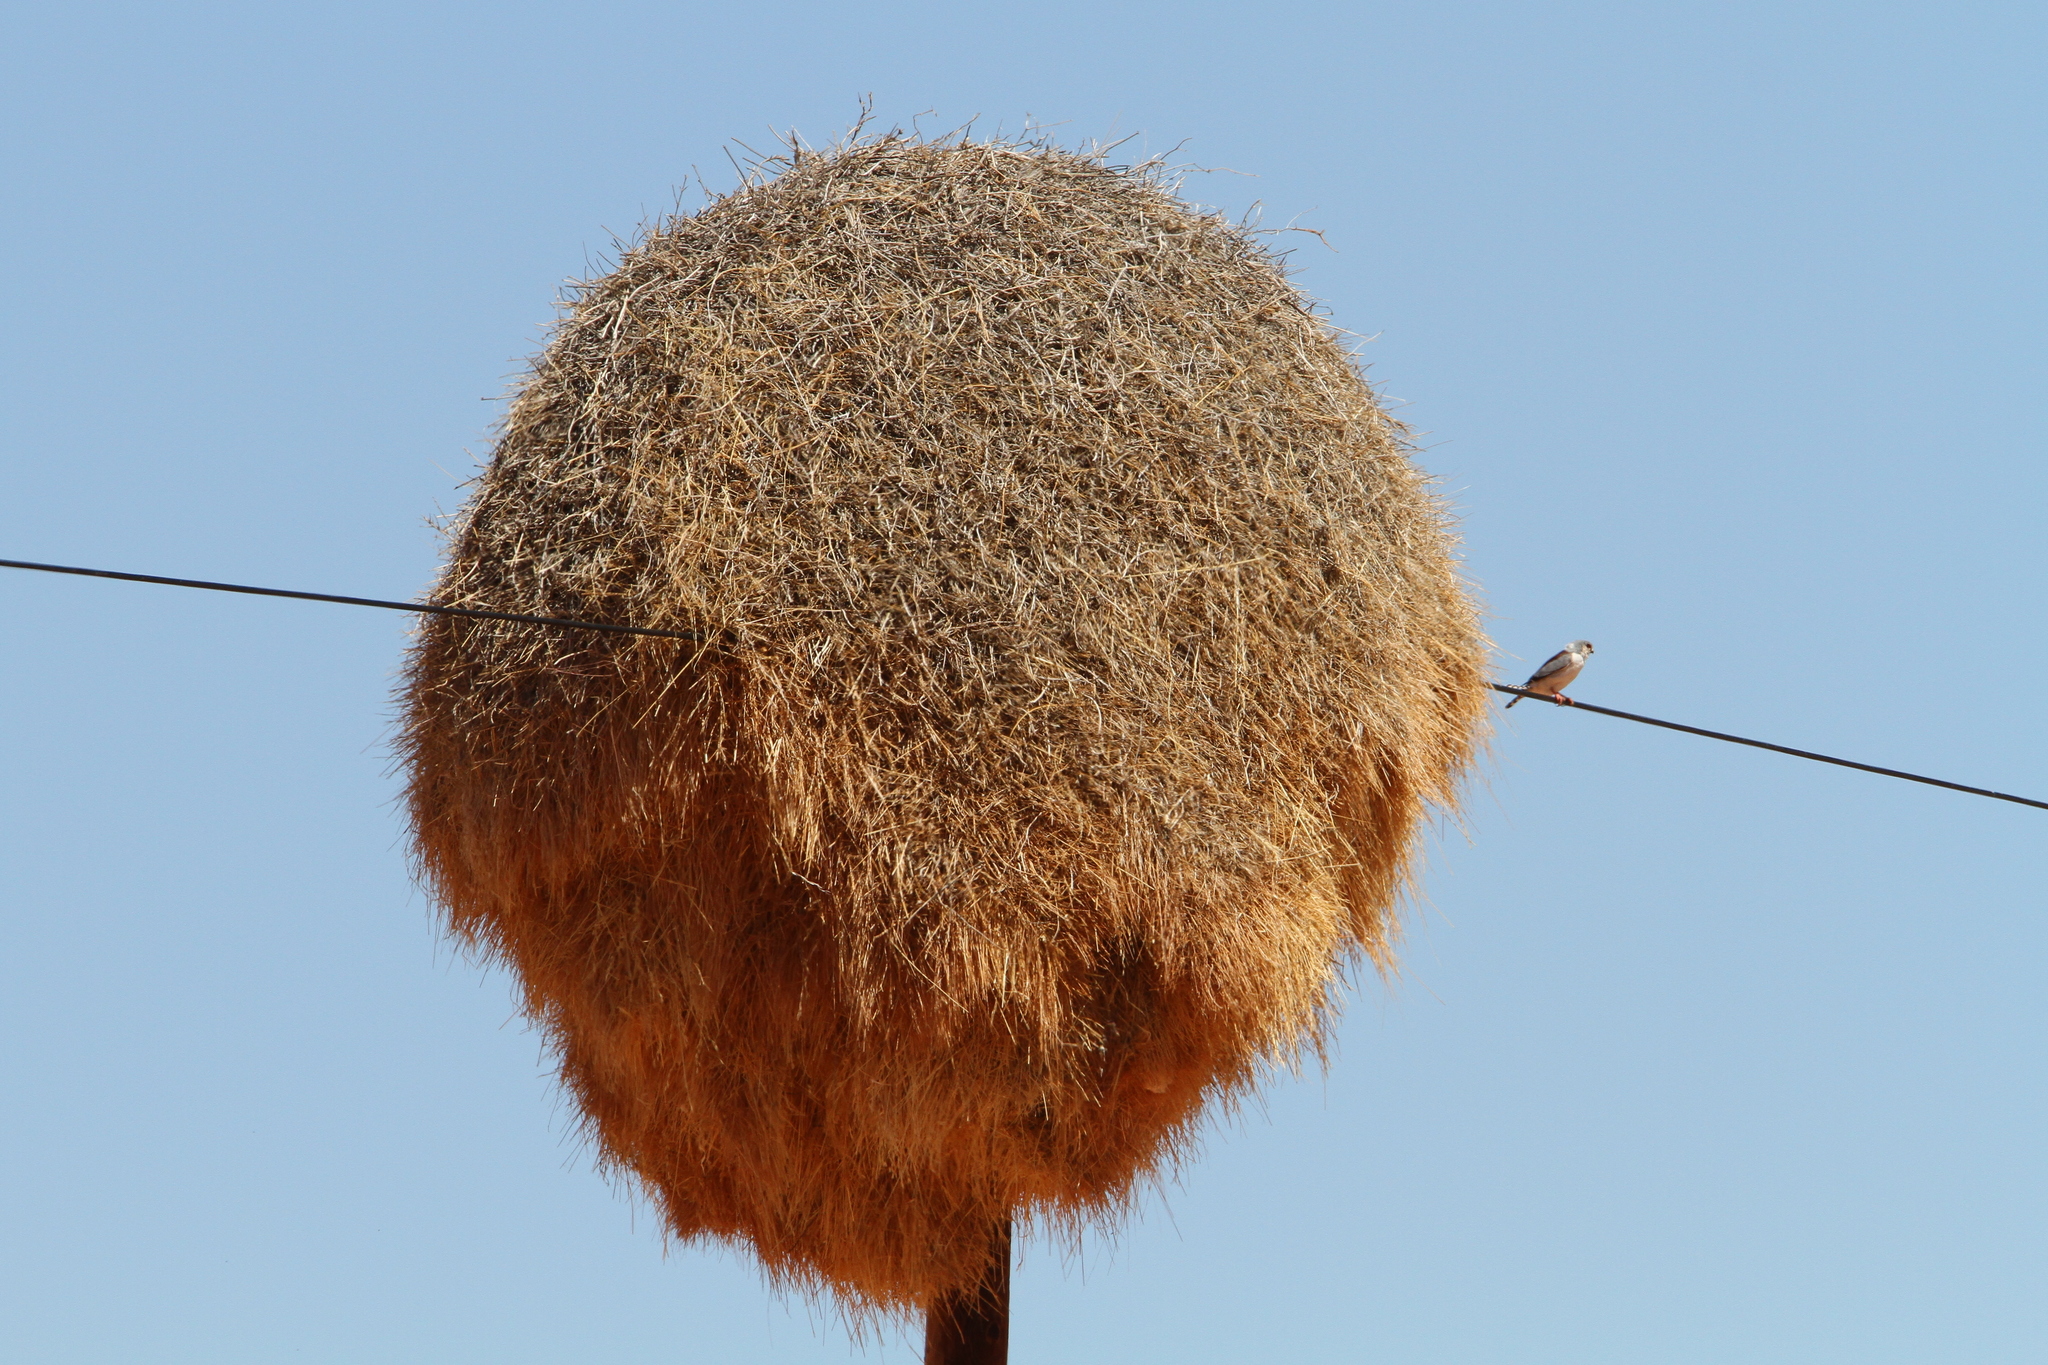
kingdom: Animalia
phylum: Chordata
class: Aves
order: Falconiformes
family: Falconidae
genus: Polihierax
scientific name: Polihierax semitorquatus
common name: Pygmy falcon
